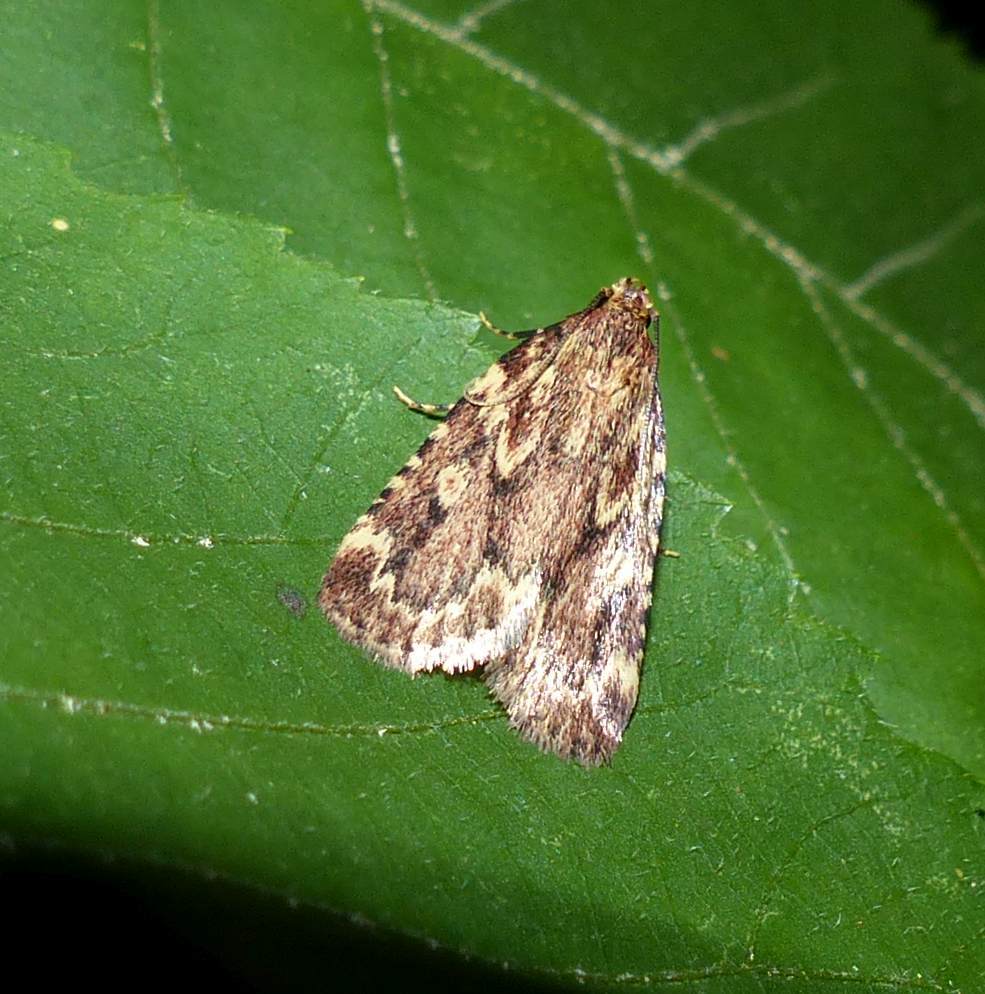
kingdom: Animalia
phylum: Arthropoda
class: Insecta
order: Lepidoptera
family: Pyralidae
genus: Aglossa
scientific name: Aglossa cuprina
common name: Grease moth
